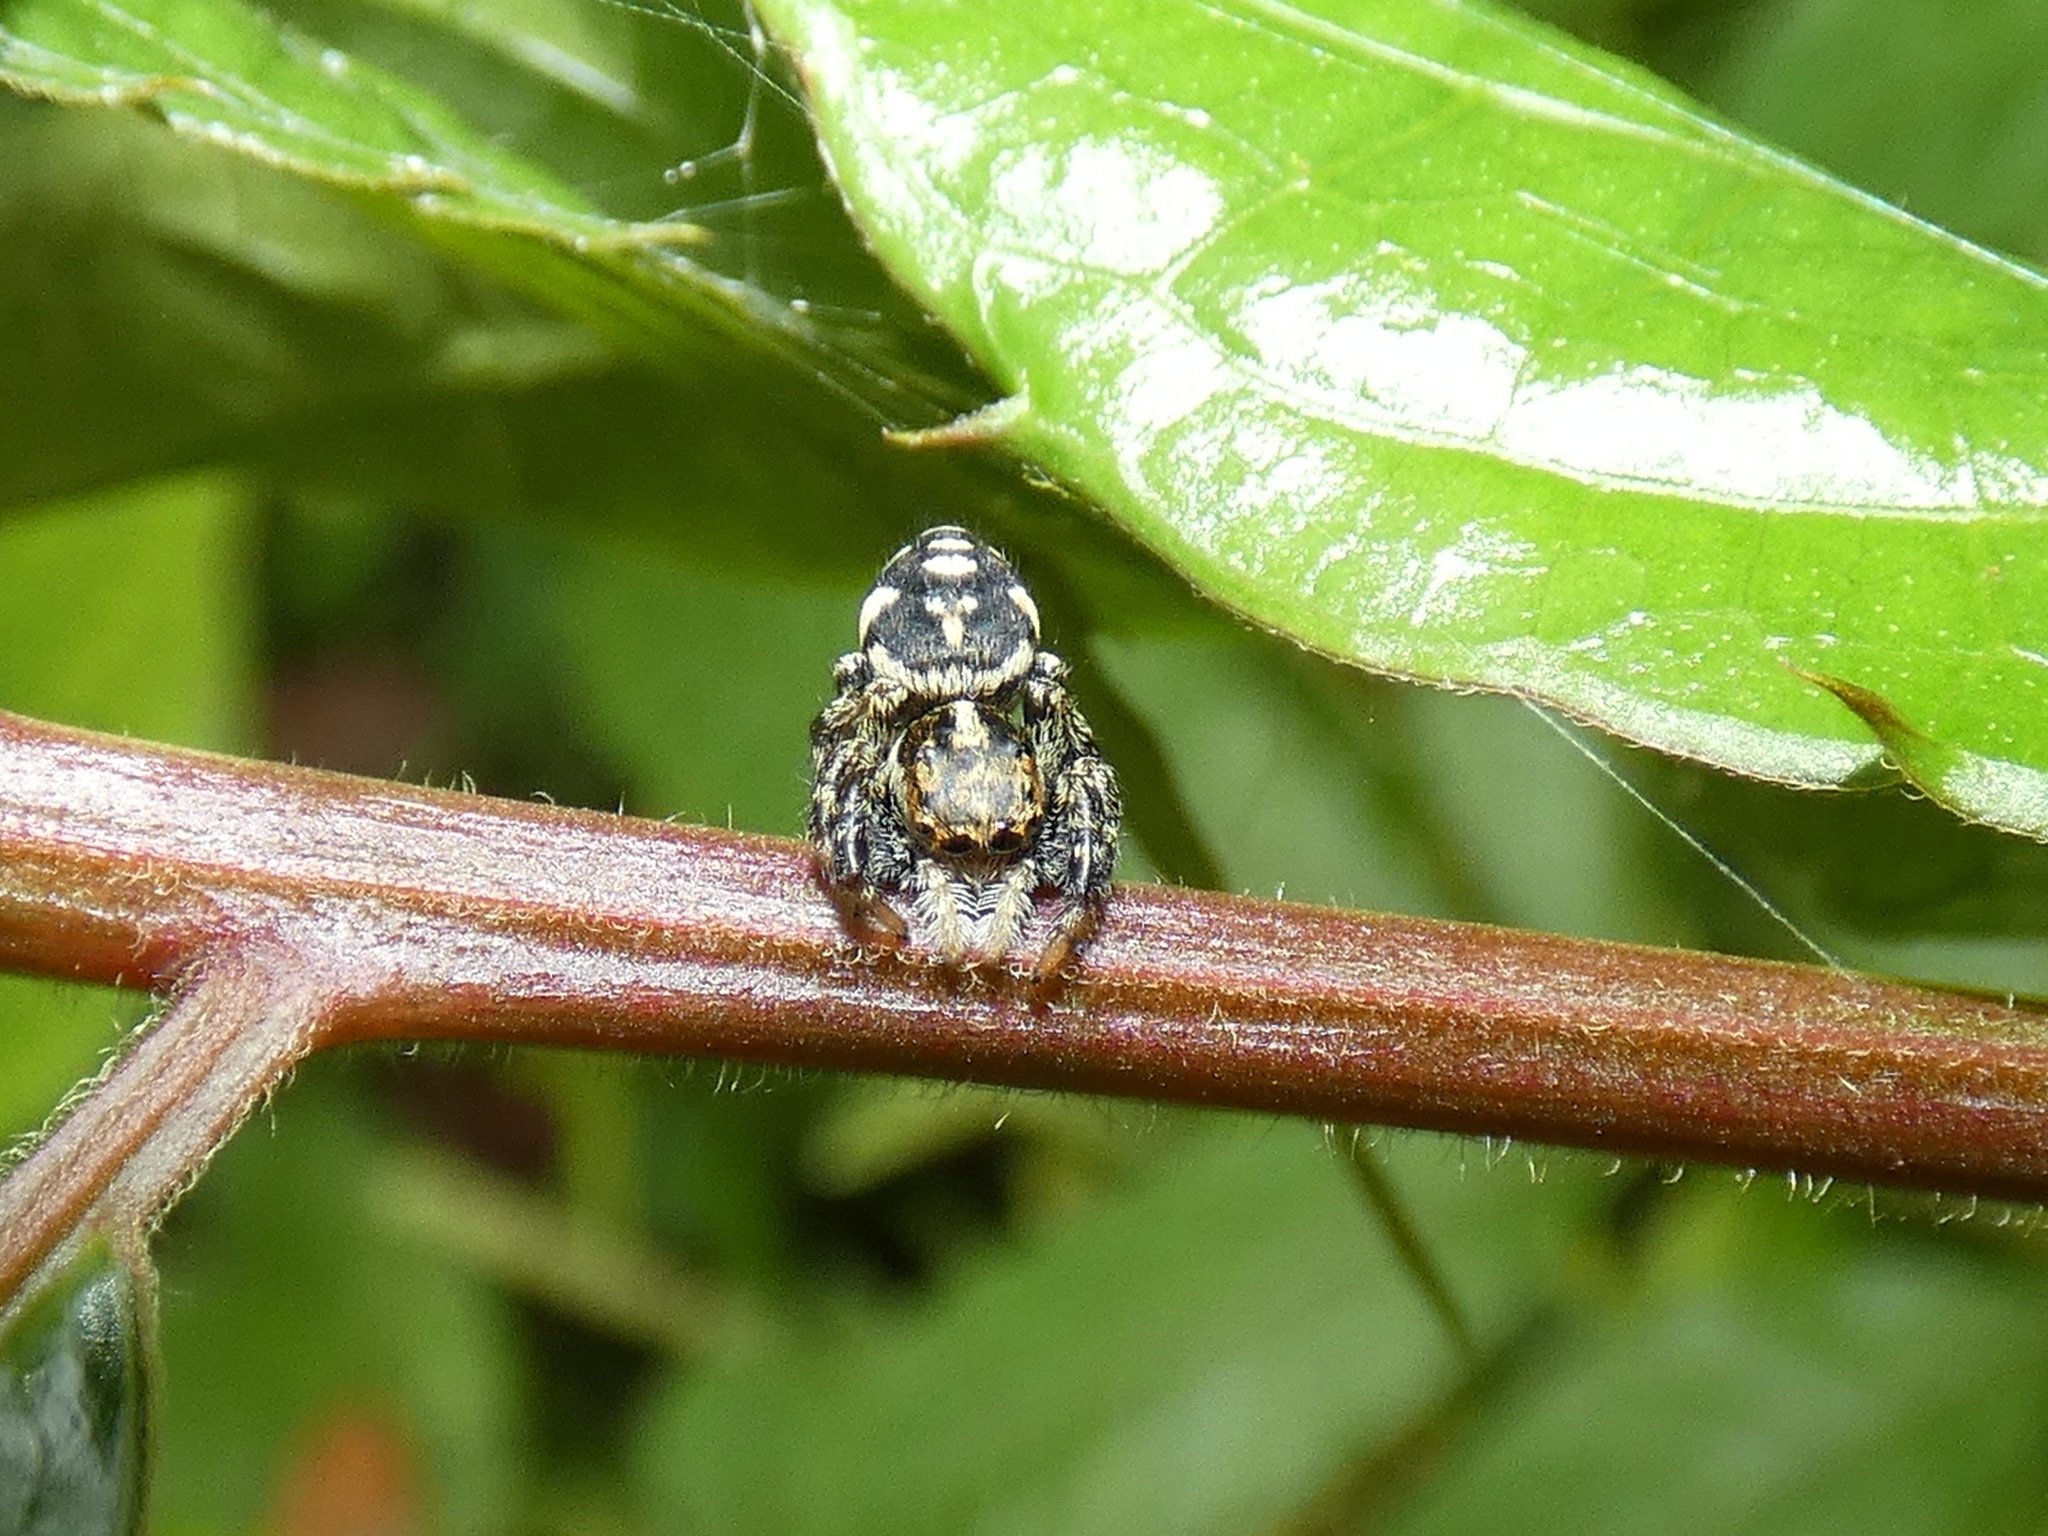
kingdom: Animalia
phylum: Arthropoda
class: Arachnida
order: Araneae
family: Salticidae
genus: Phiale
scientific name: Phiale guttata
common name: Jumping spiders
